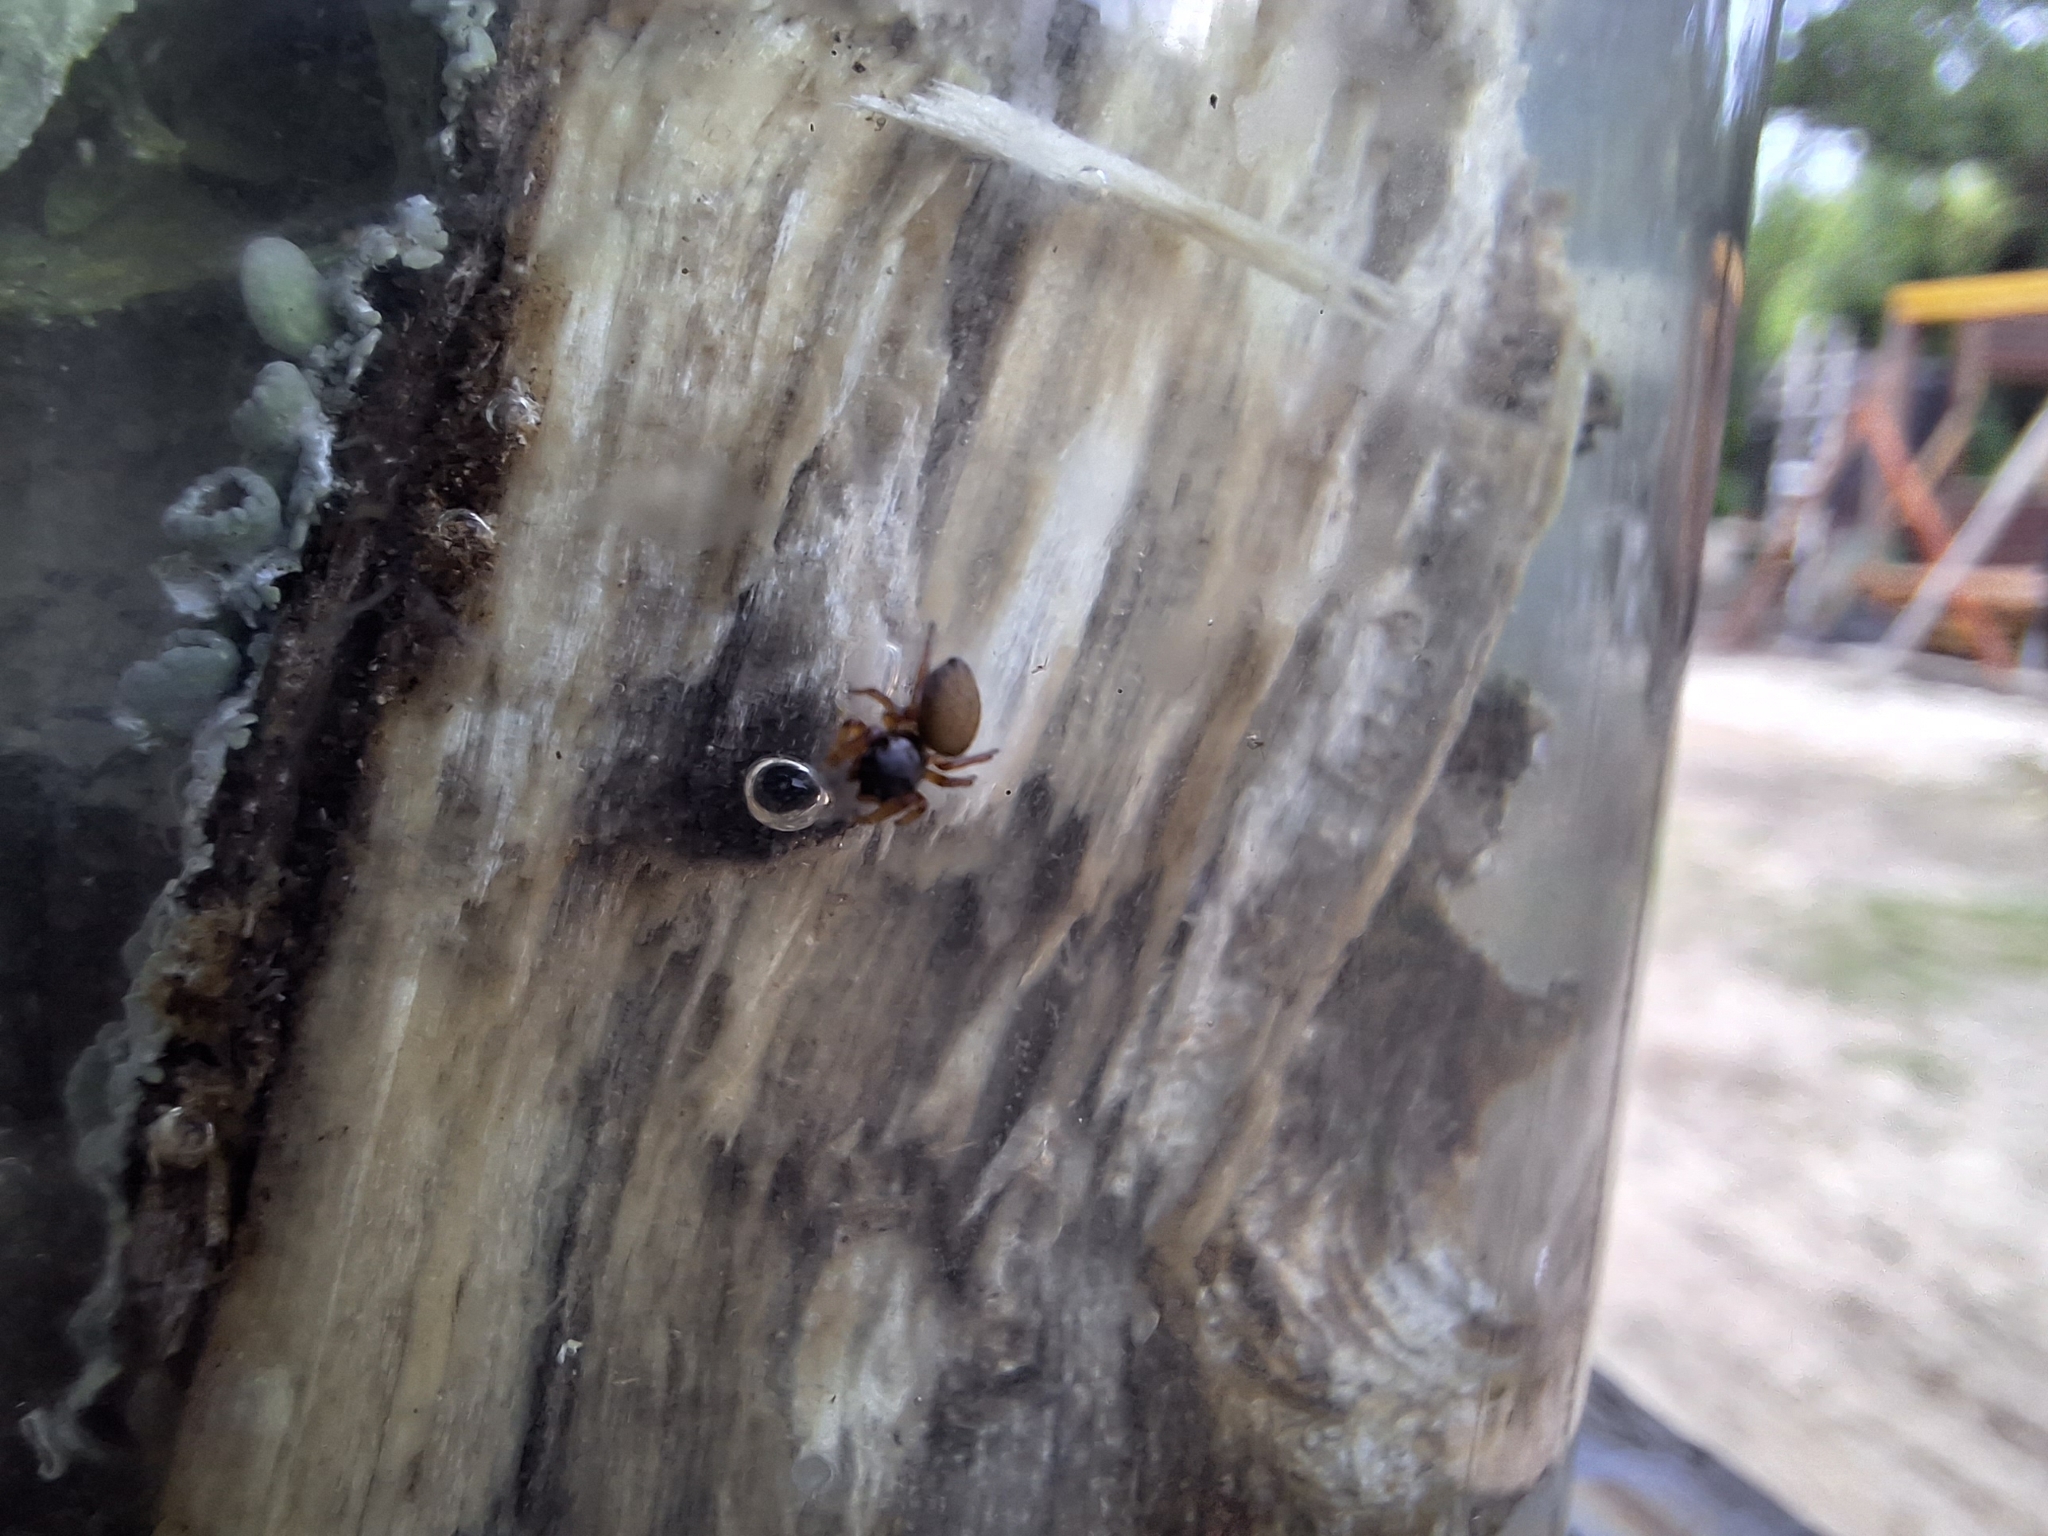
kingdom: Animalia
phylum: Arthropoda
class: Arachnida
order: Araneae
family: Salticidae
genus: Euophrys
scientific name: Euophrys melanoleuca
